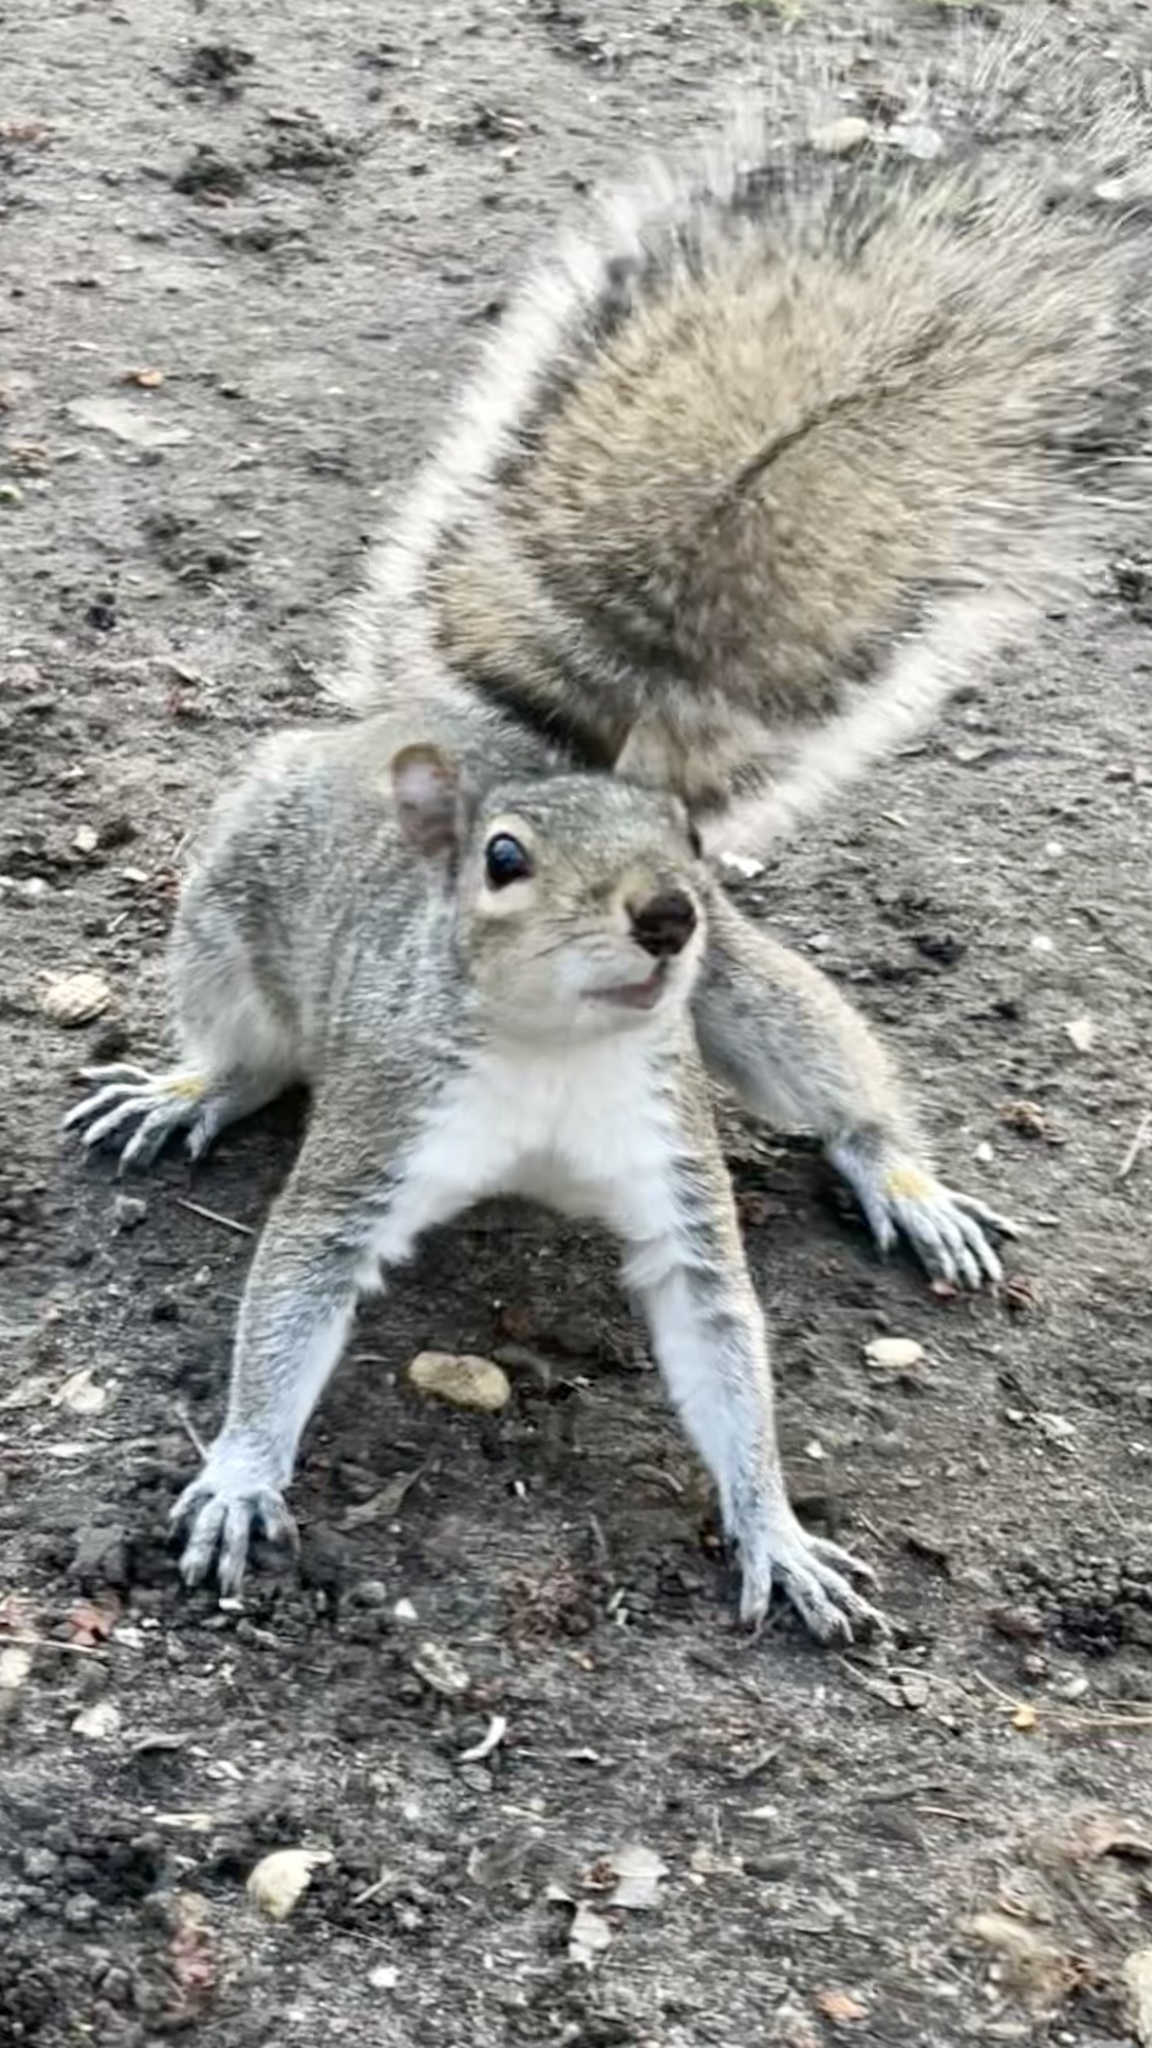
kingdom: Animalia
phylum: Chordata
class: Mammalia
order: Rodentia
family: Sciuridae
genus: Sciurus
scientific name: Sciurus carolinensis
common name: Eastern gray squirrel
